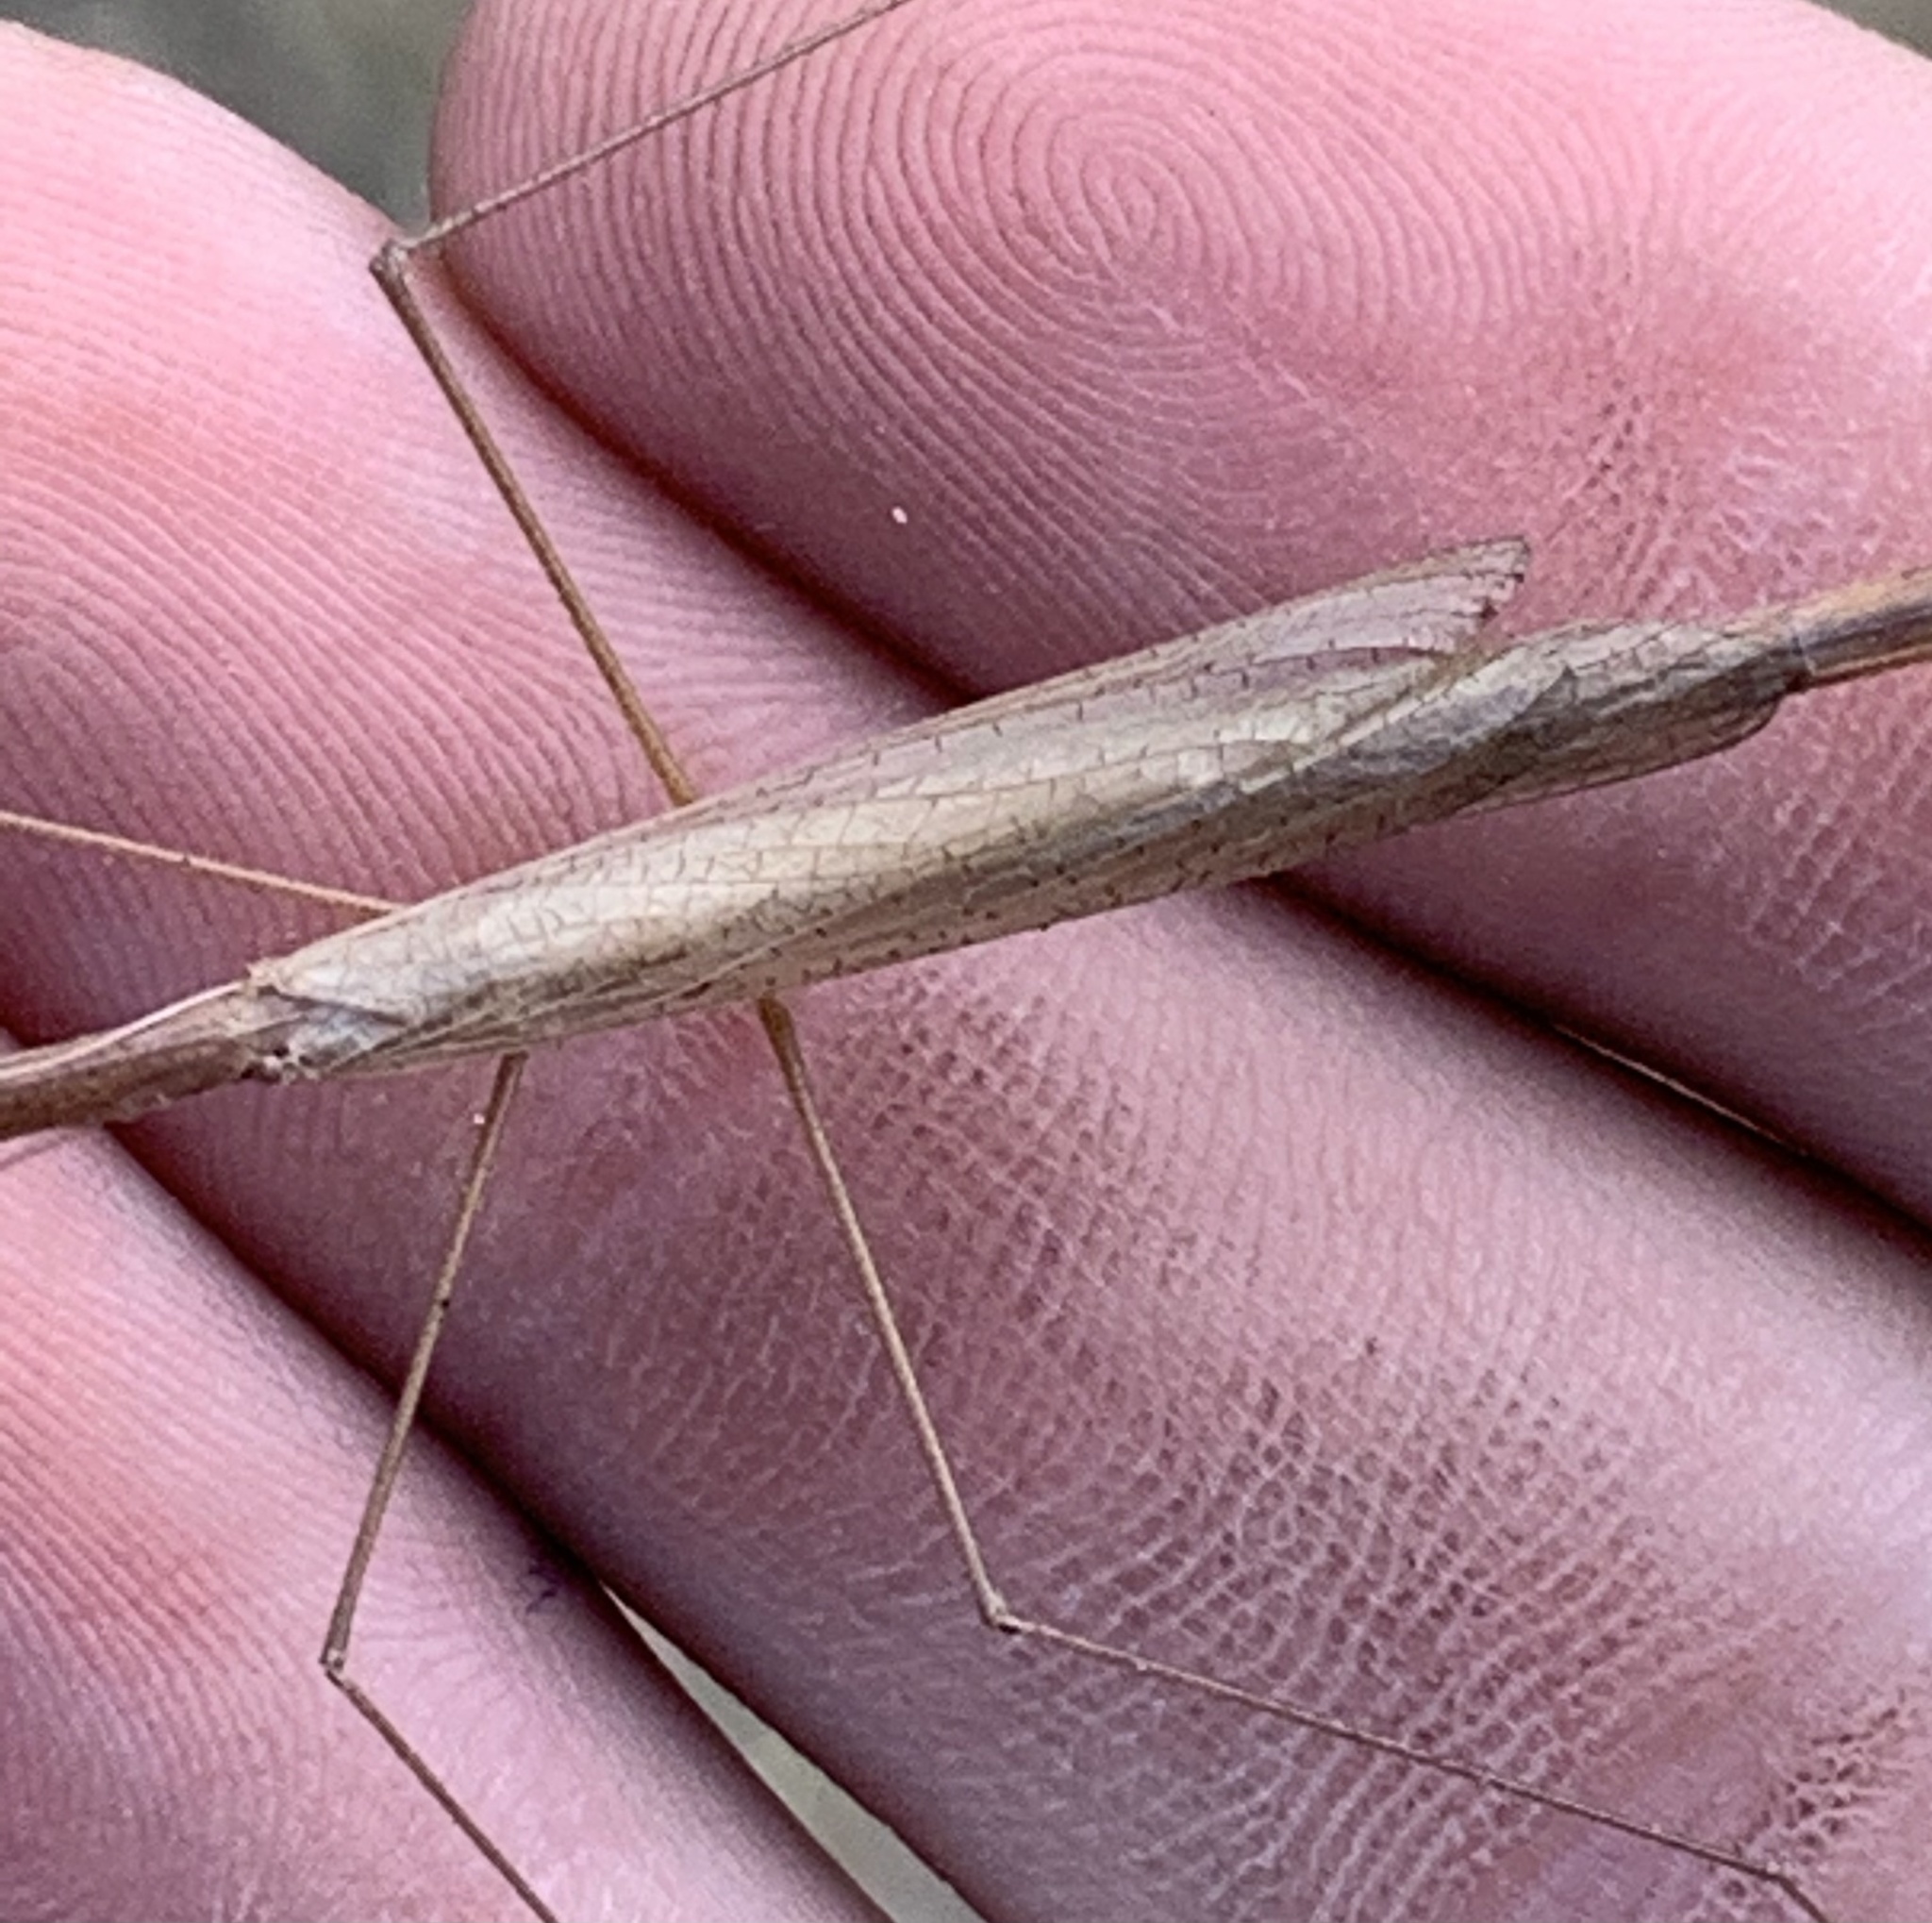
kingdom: Animalia
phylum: Arthropoda
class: Insecta
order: Mantodea
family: Thespidae
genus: Thesprotia
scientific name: Thesprotia graminis
